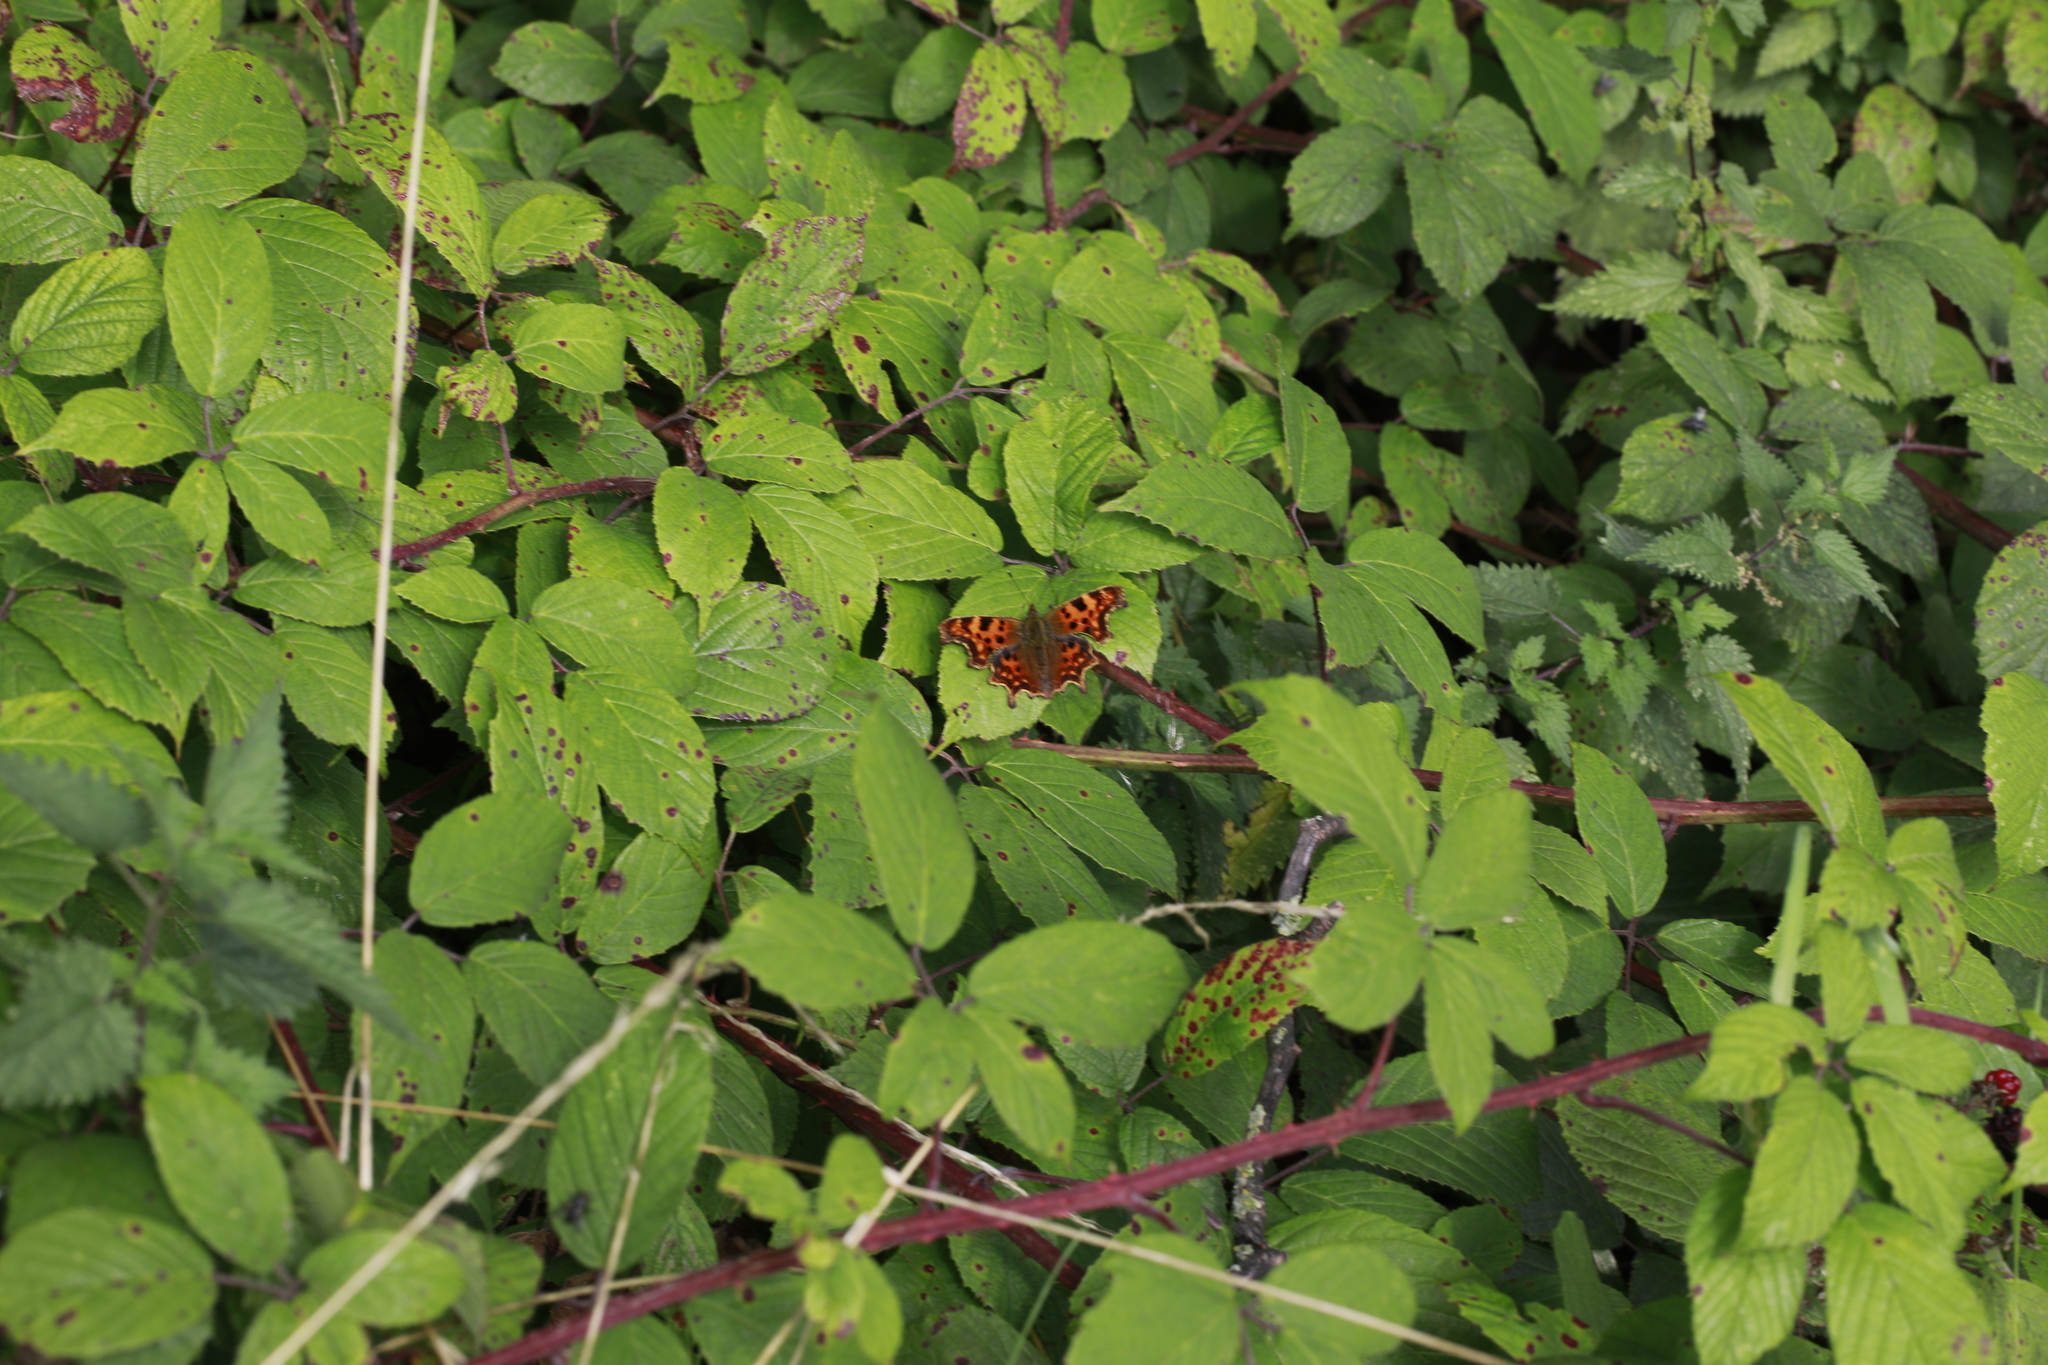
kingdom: Animalia
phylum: Arthropoda
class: Insecta
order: Lepidoptera
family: Nymphalidae
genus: Polygonia
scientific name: Polygonia c-album
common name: Comma
